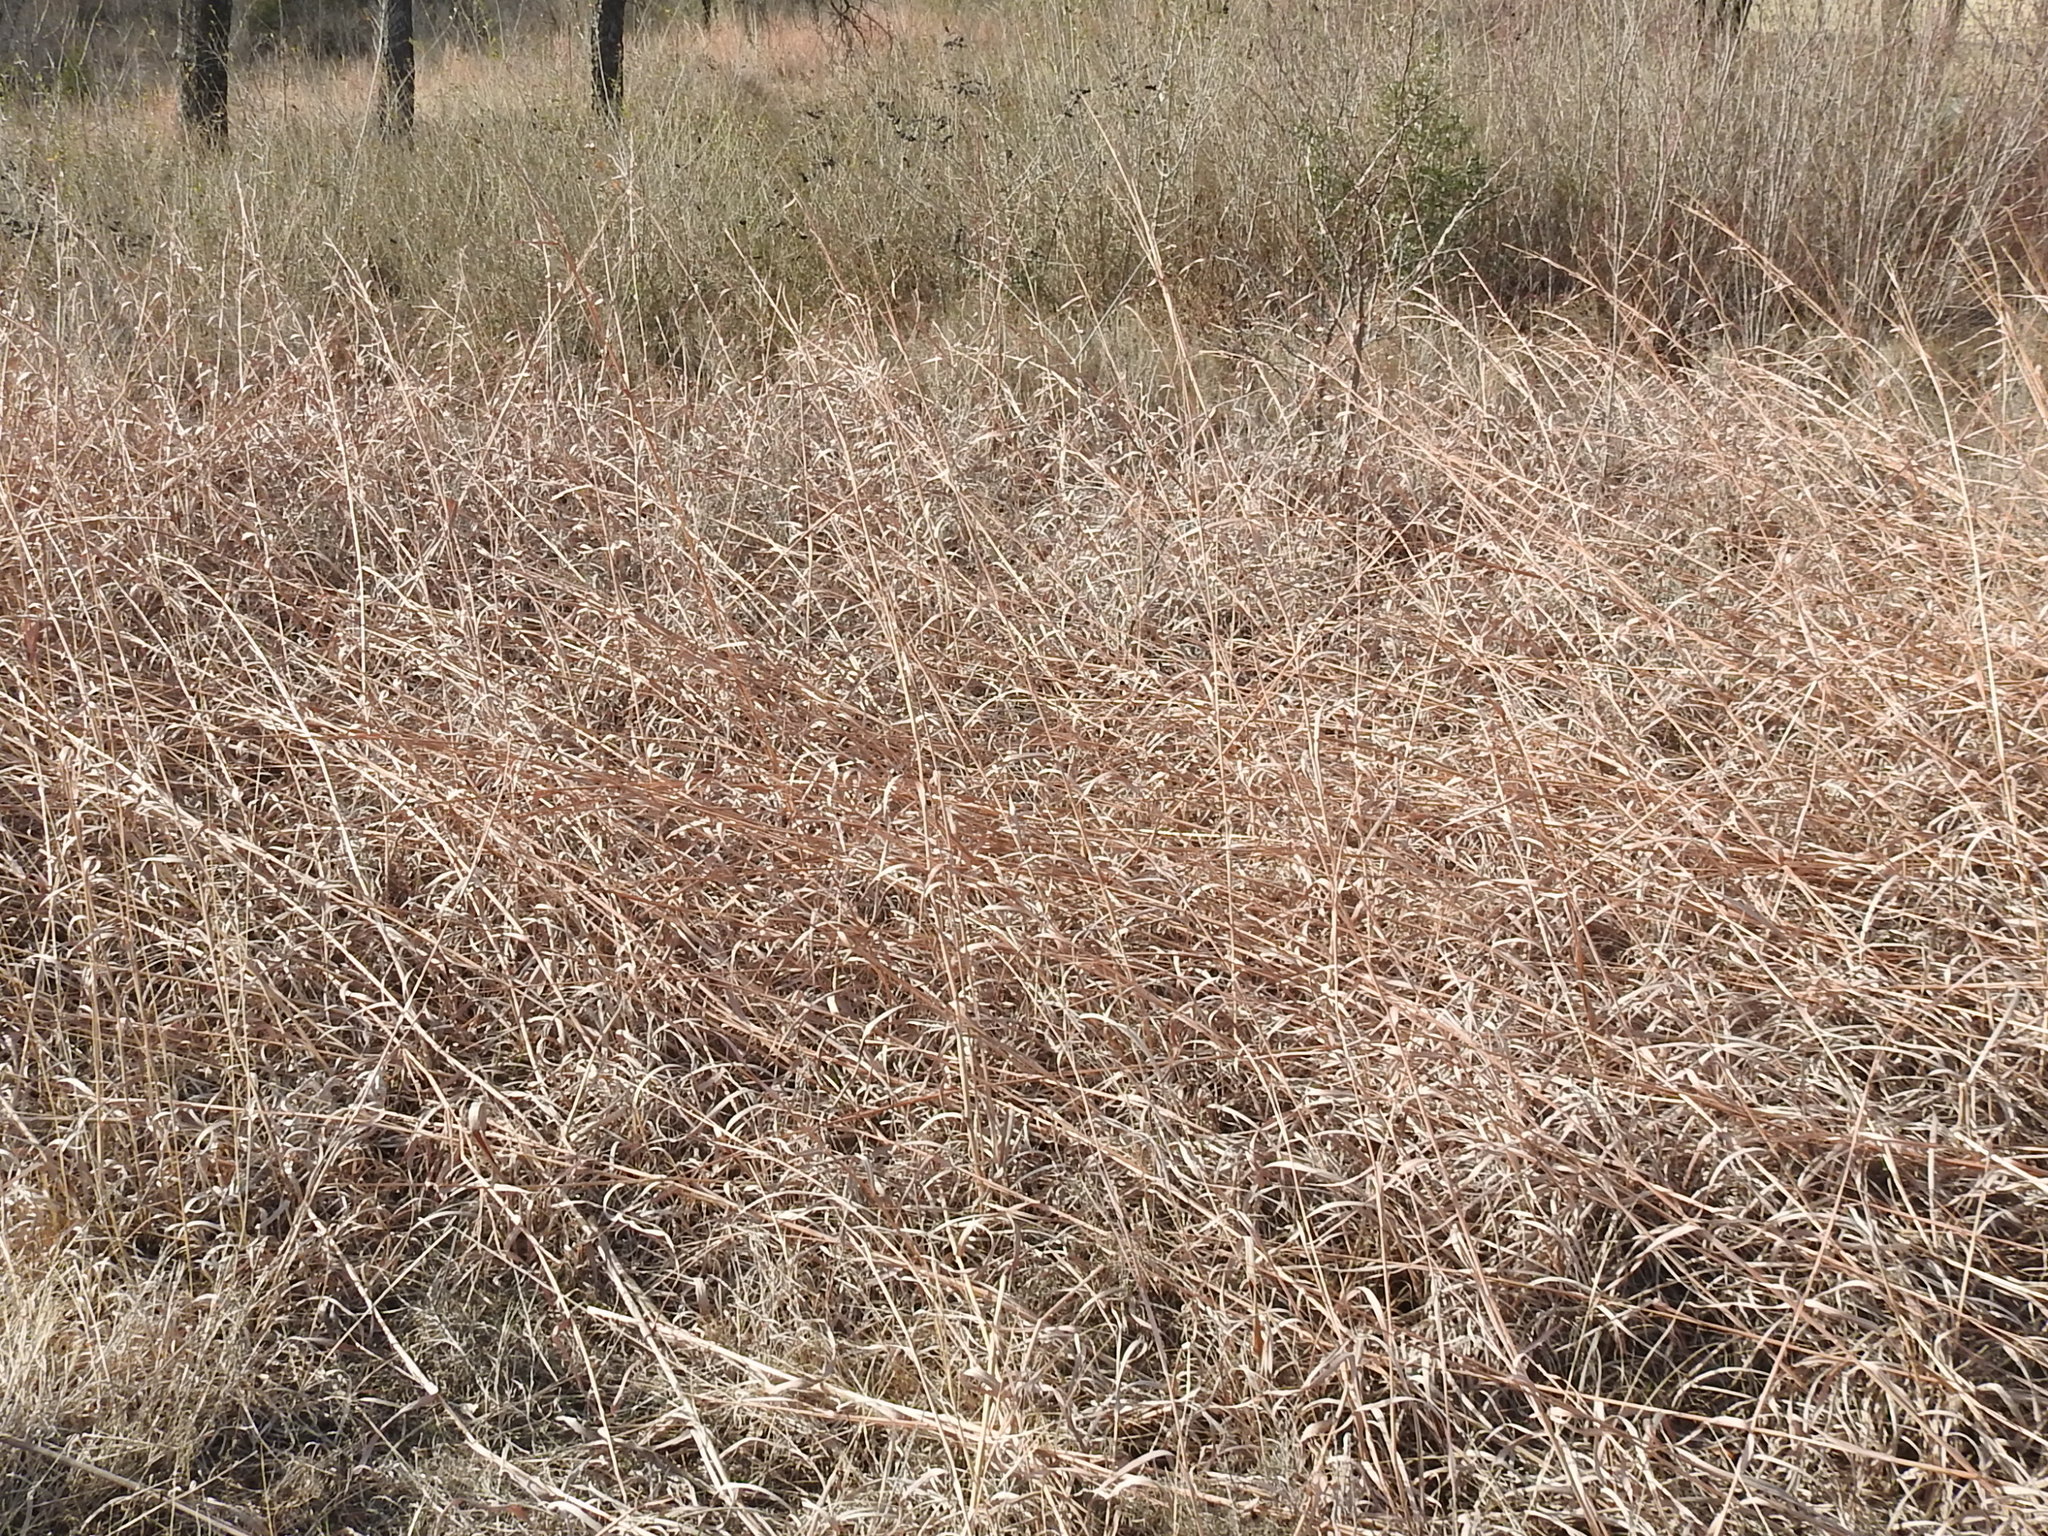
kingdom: Plantae
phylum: Tracheophyta
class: Liliopsida
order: Poales
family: Poaceae
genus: Andropogon
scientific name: Andropogon gerardi
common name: Big bluestem
